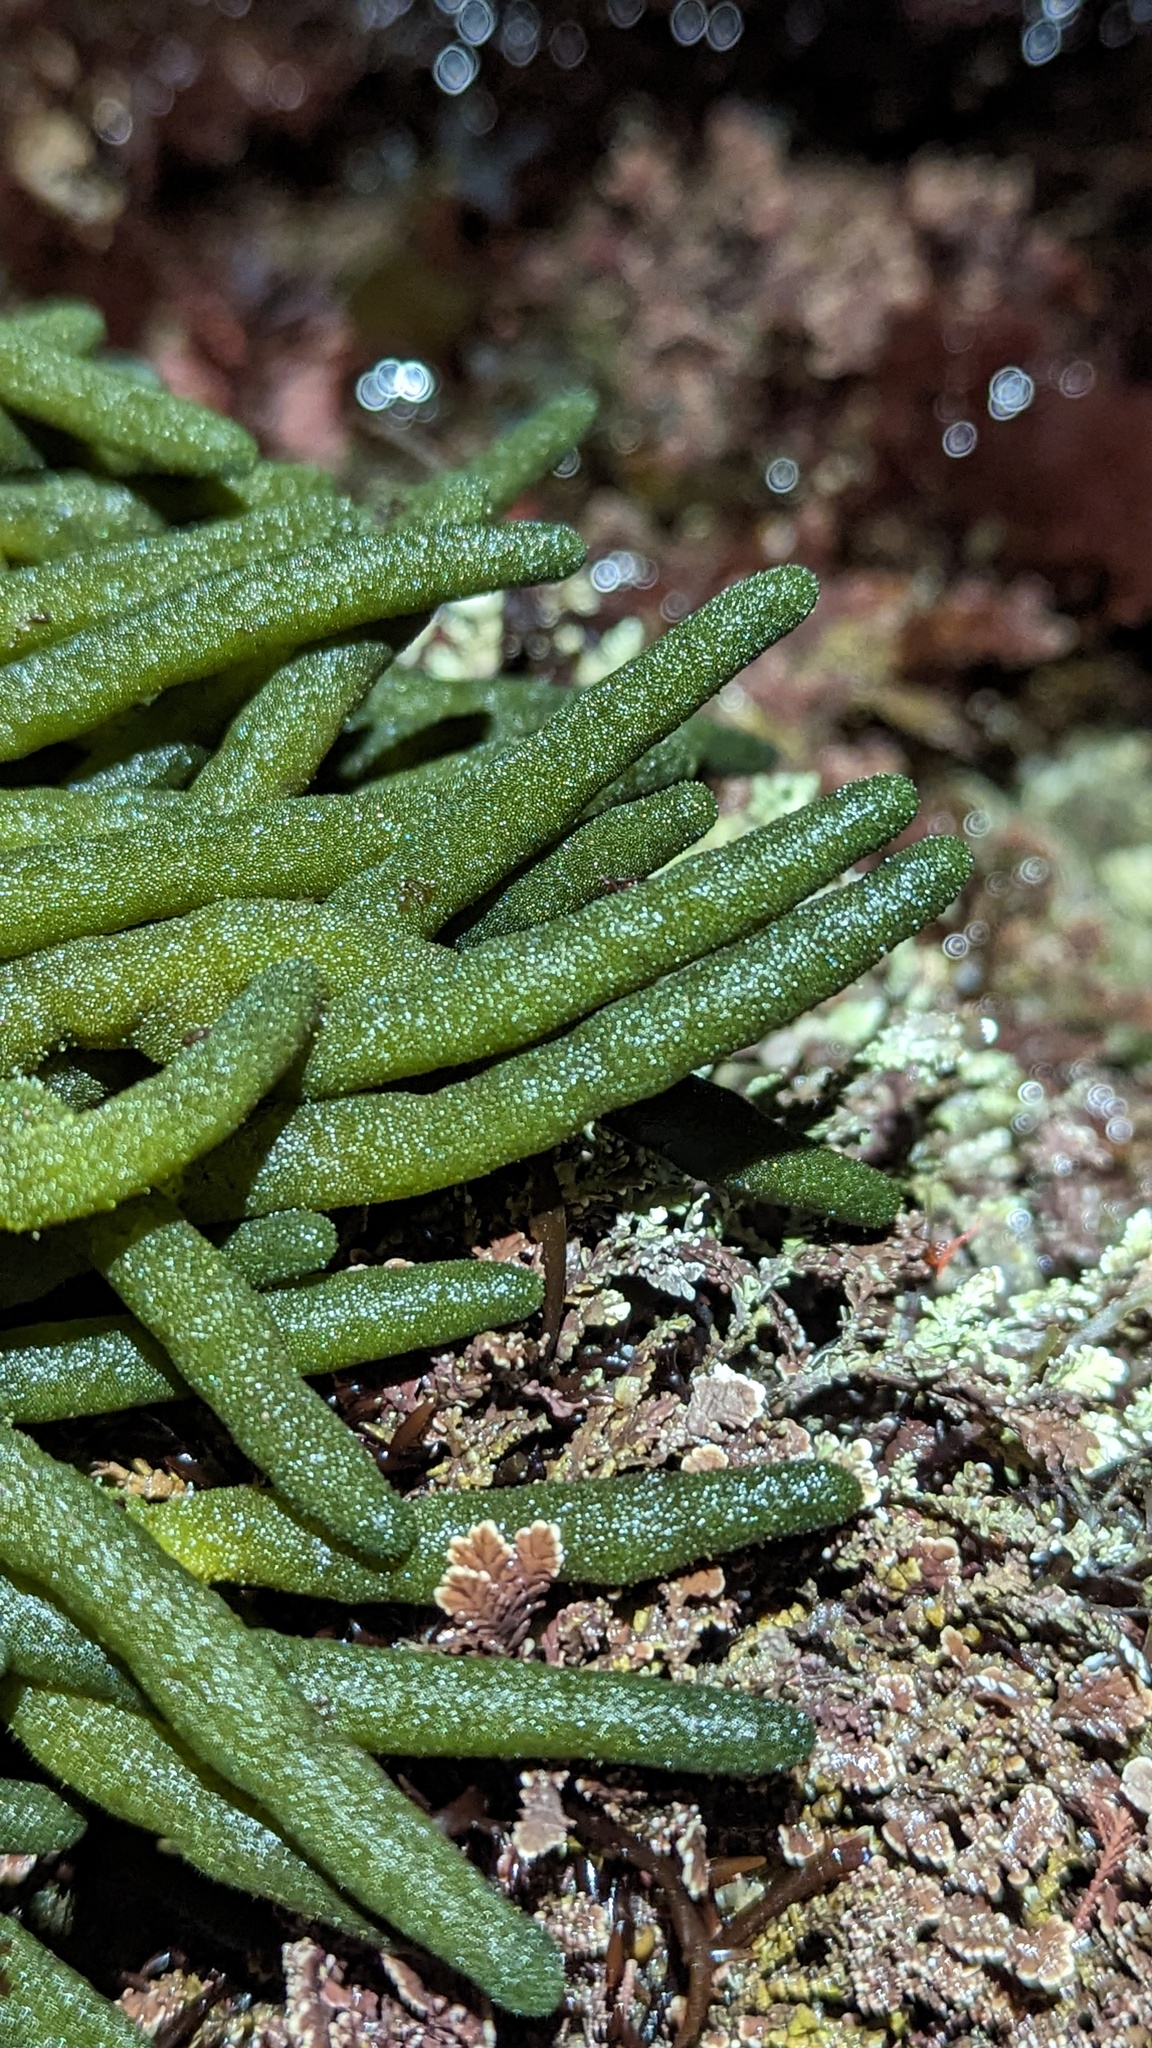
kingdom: Plantae
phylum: Chlorophyta
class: Ulvophyceae
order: Bryopsidales
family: Codiaceae
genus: Codium
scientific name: Codium fragile
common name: Dead man's fingers
